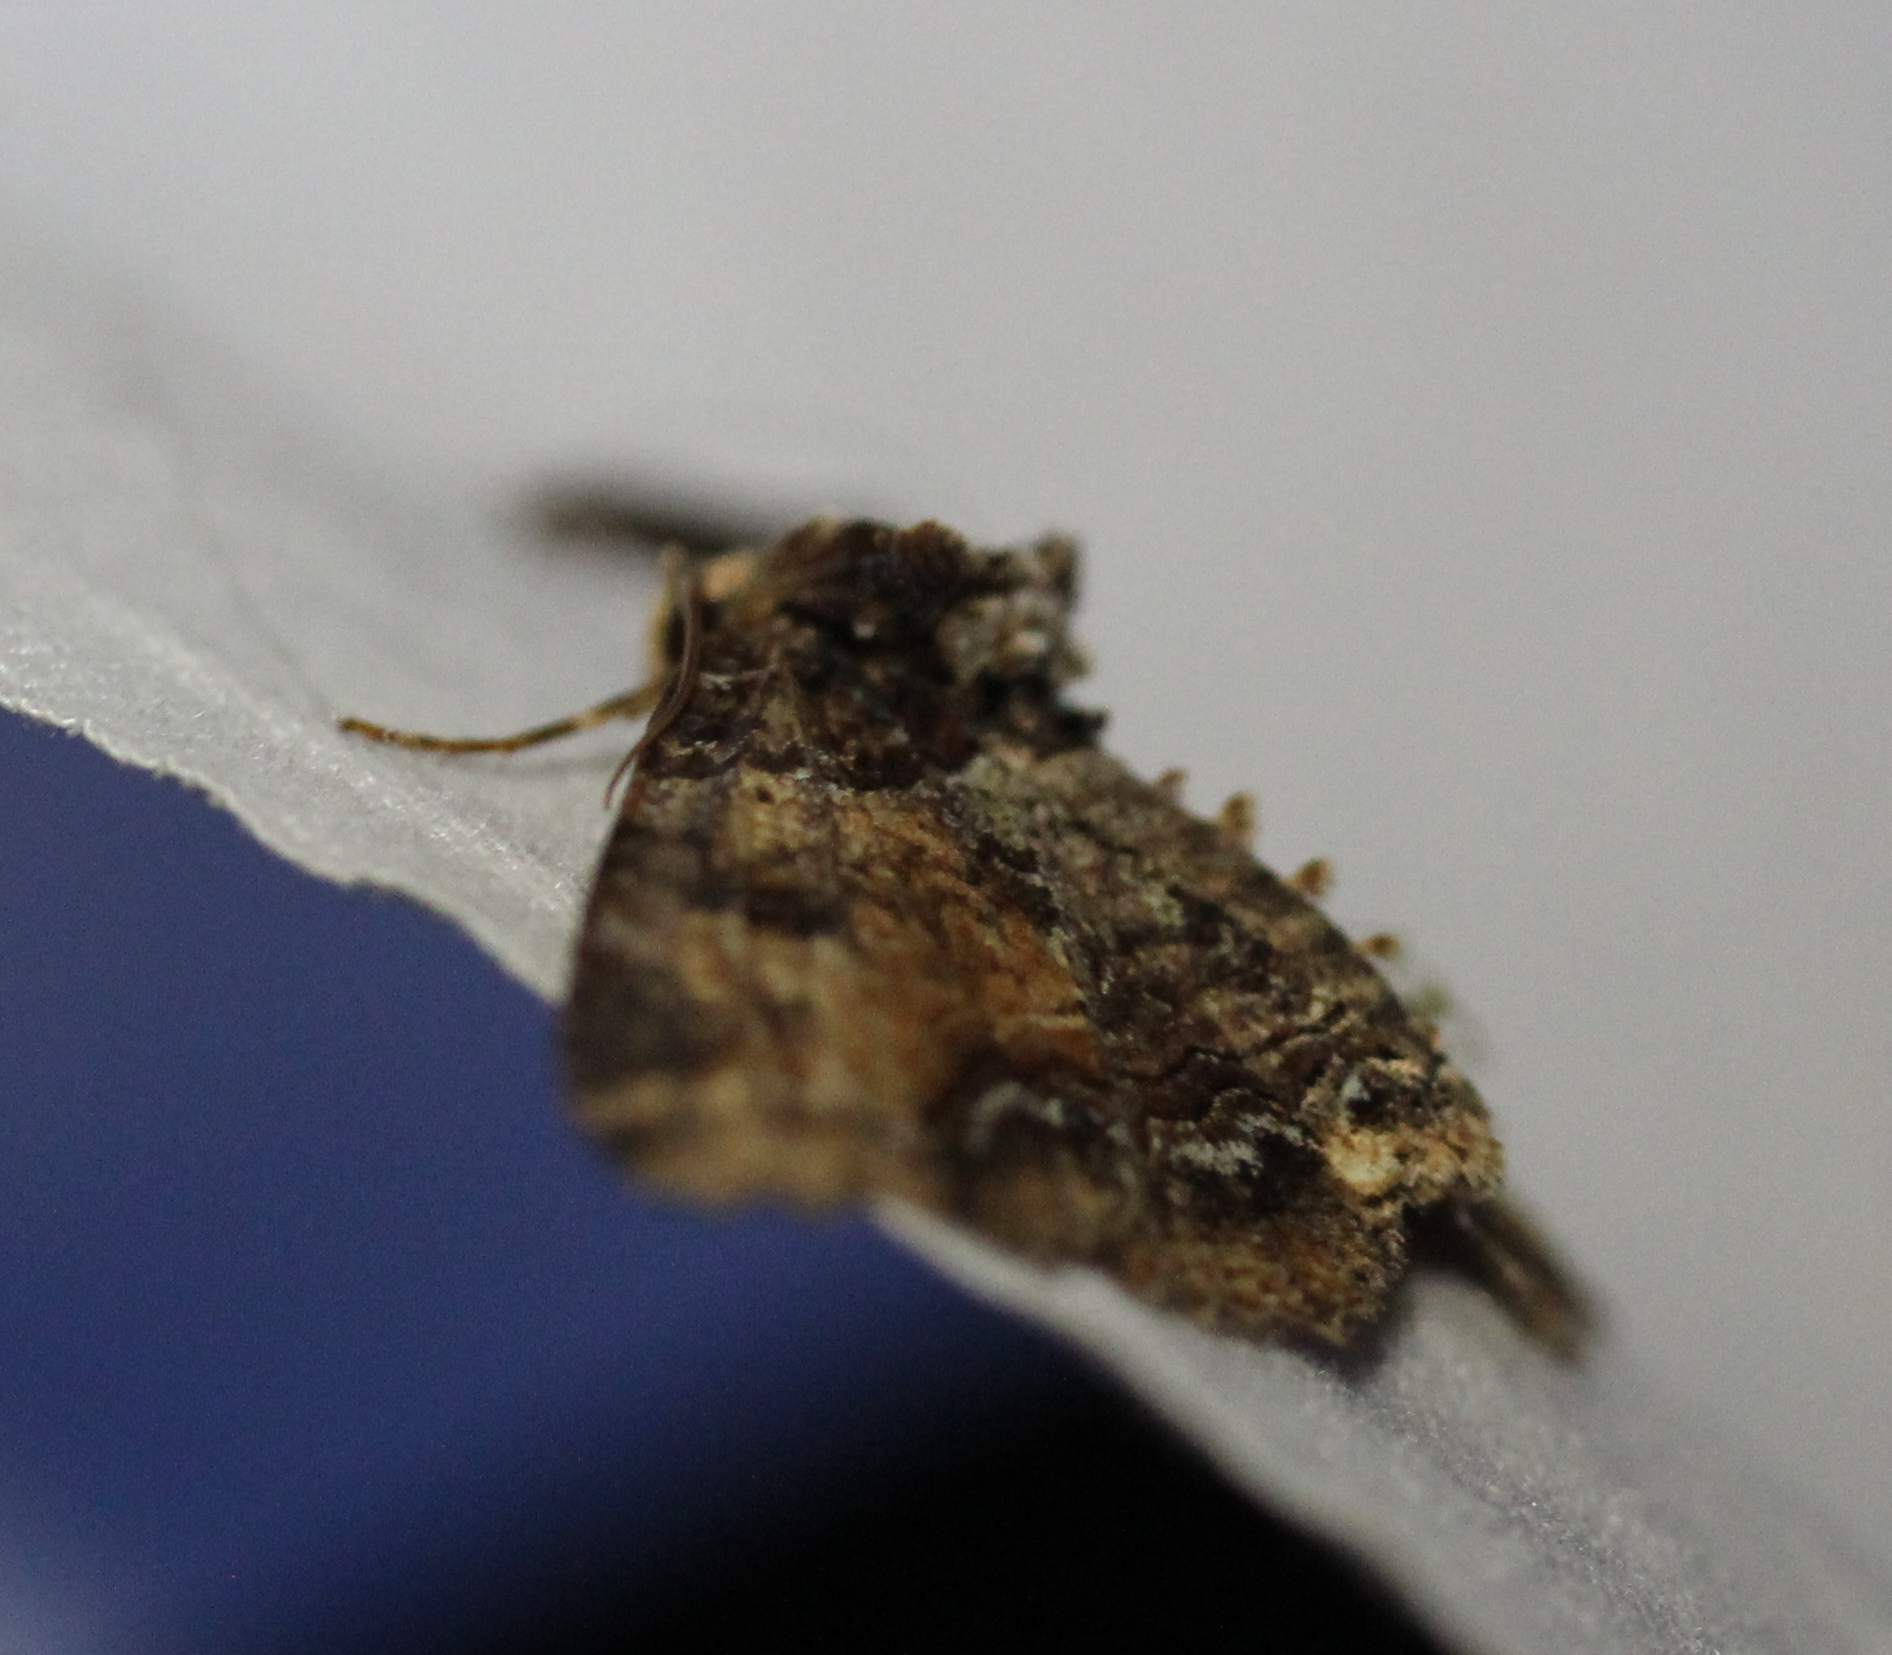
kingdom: Animalia
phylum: Arthropoda
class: Insecta
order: Lepidoptera
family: Erebidae
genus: Zale
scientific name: Zale minerea
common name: Colorful zale moth
